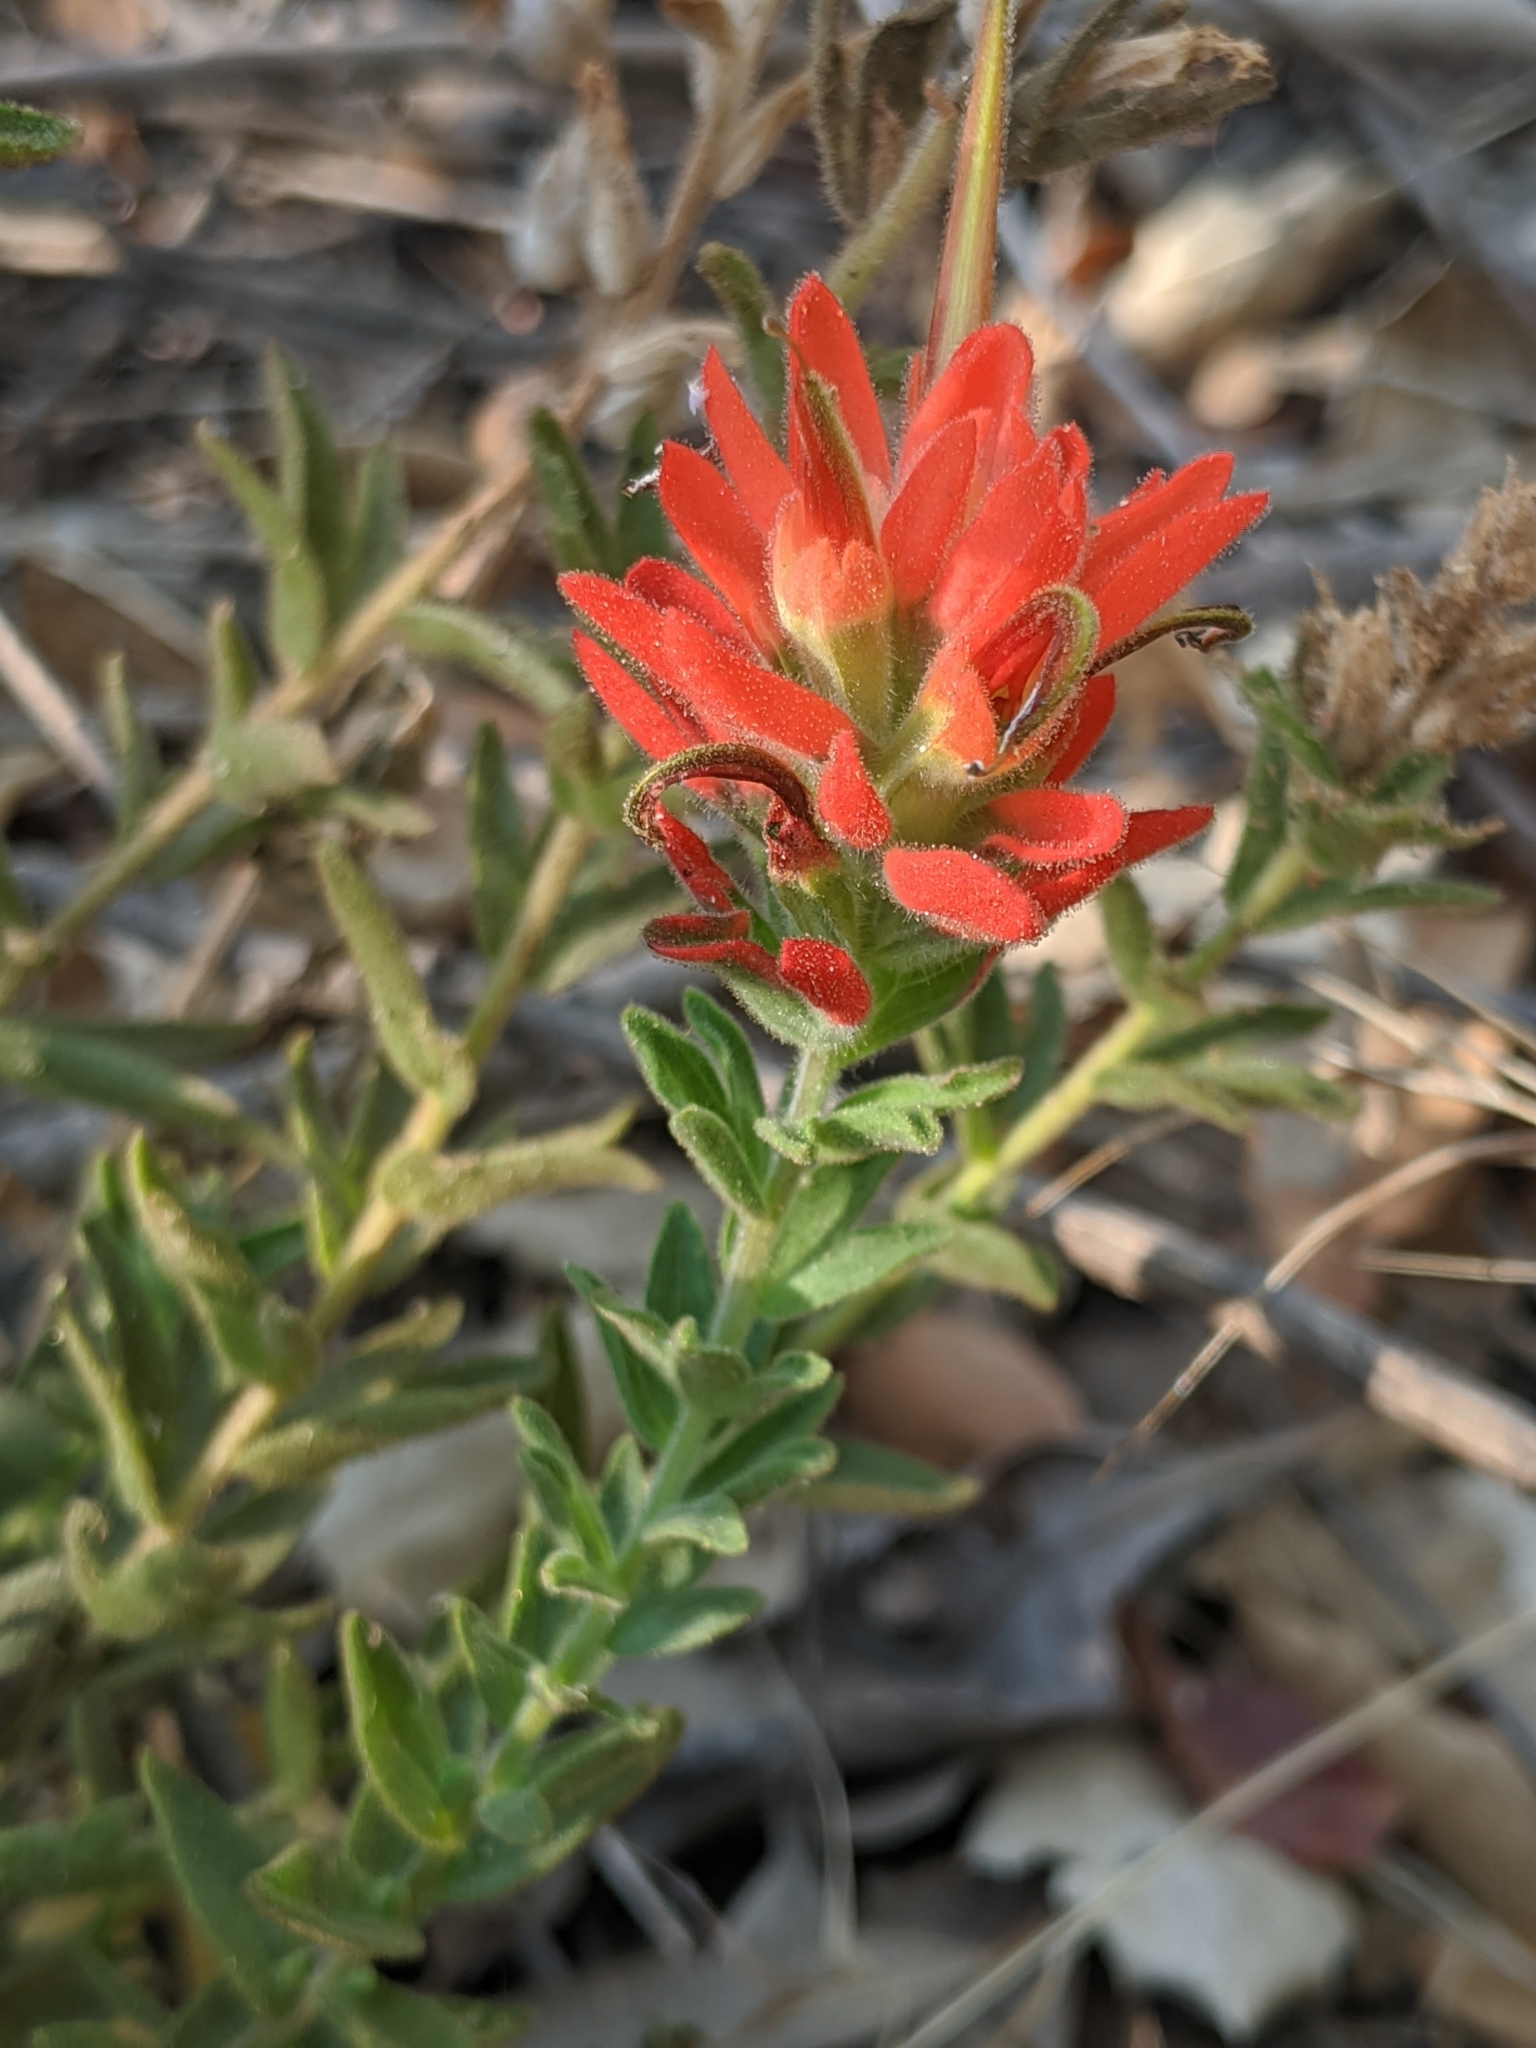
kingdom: Plantae
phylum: Tracheophyta
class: Magnoliopsida
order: Lamiales
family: Orobanchaceae
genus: Castilleja
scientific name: Castilleja martini
